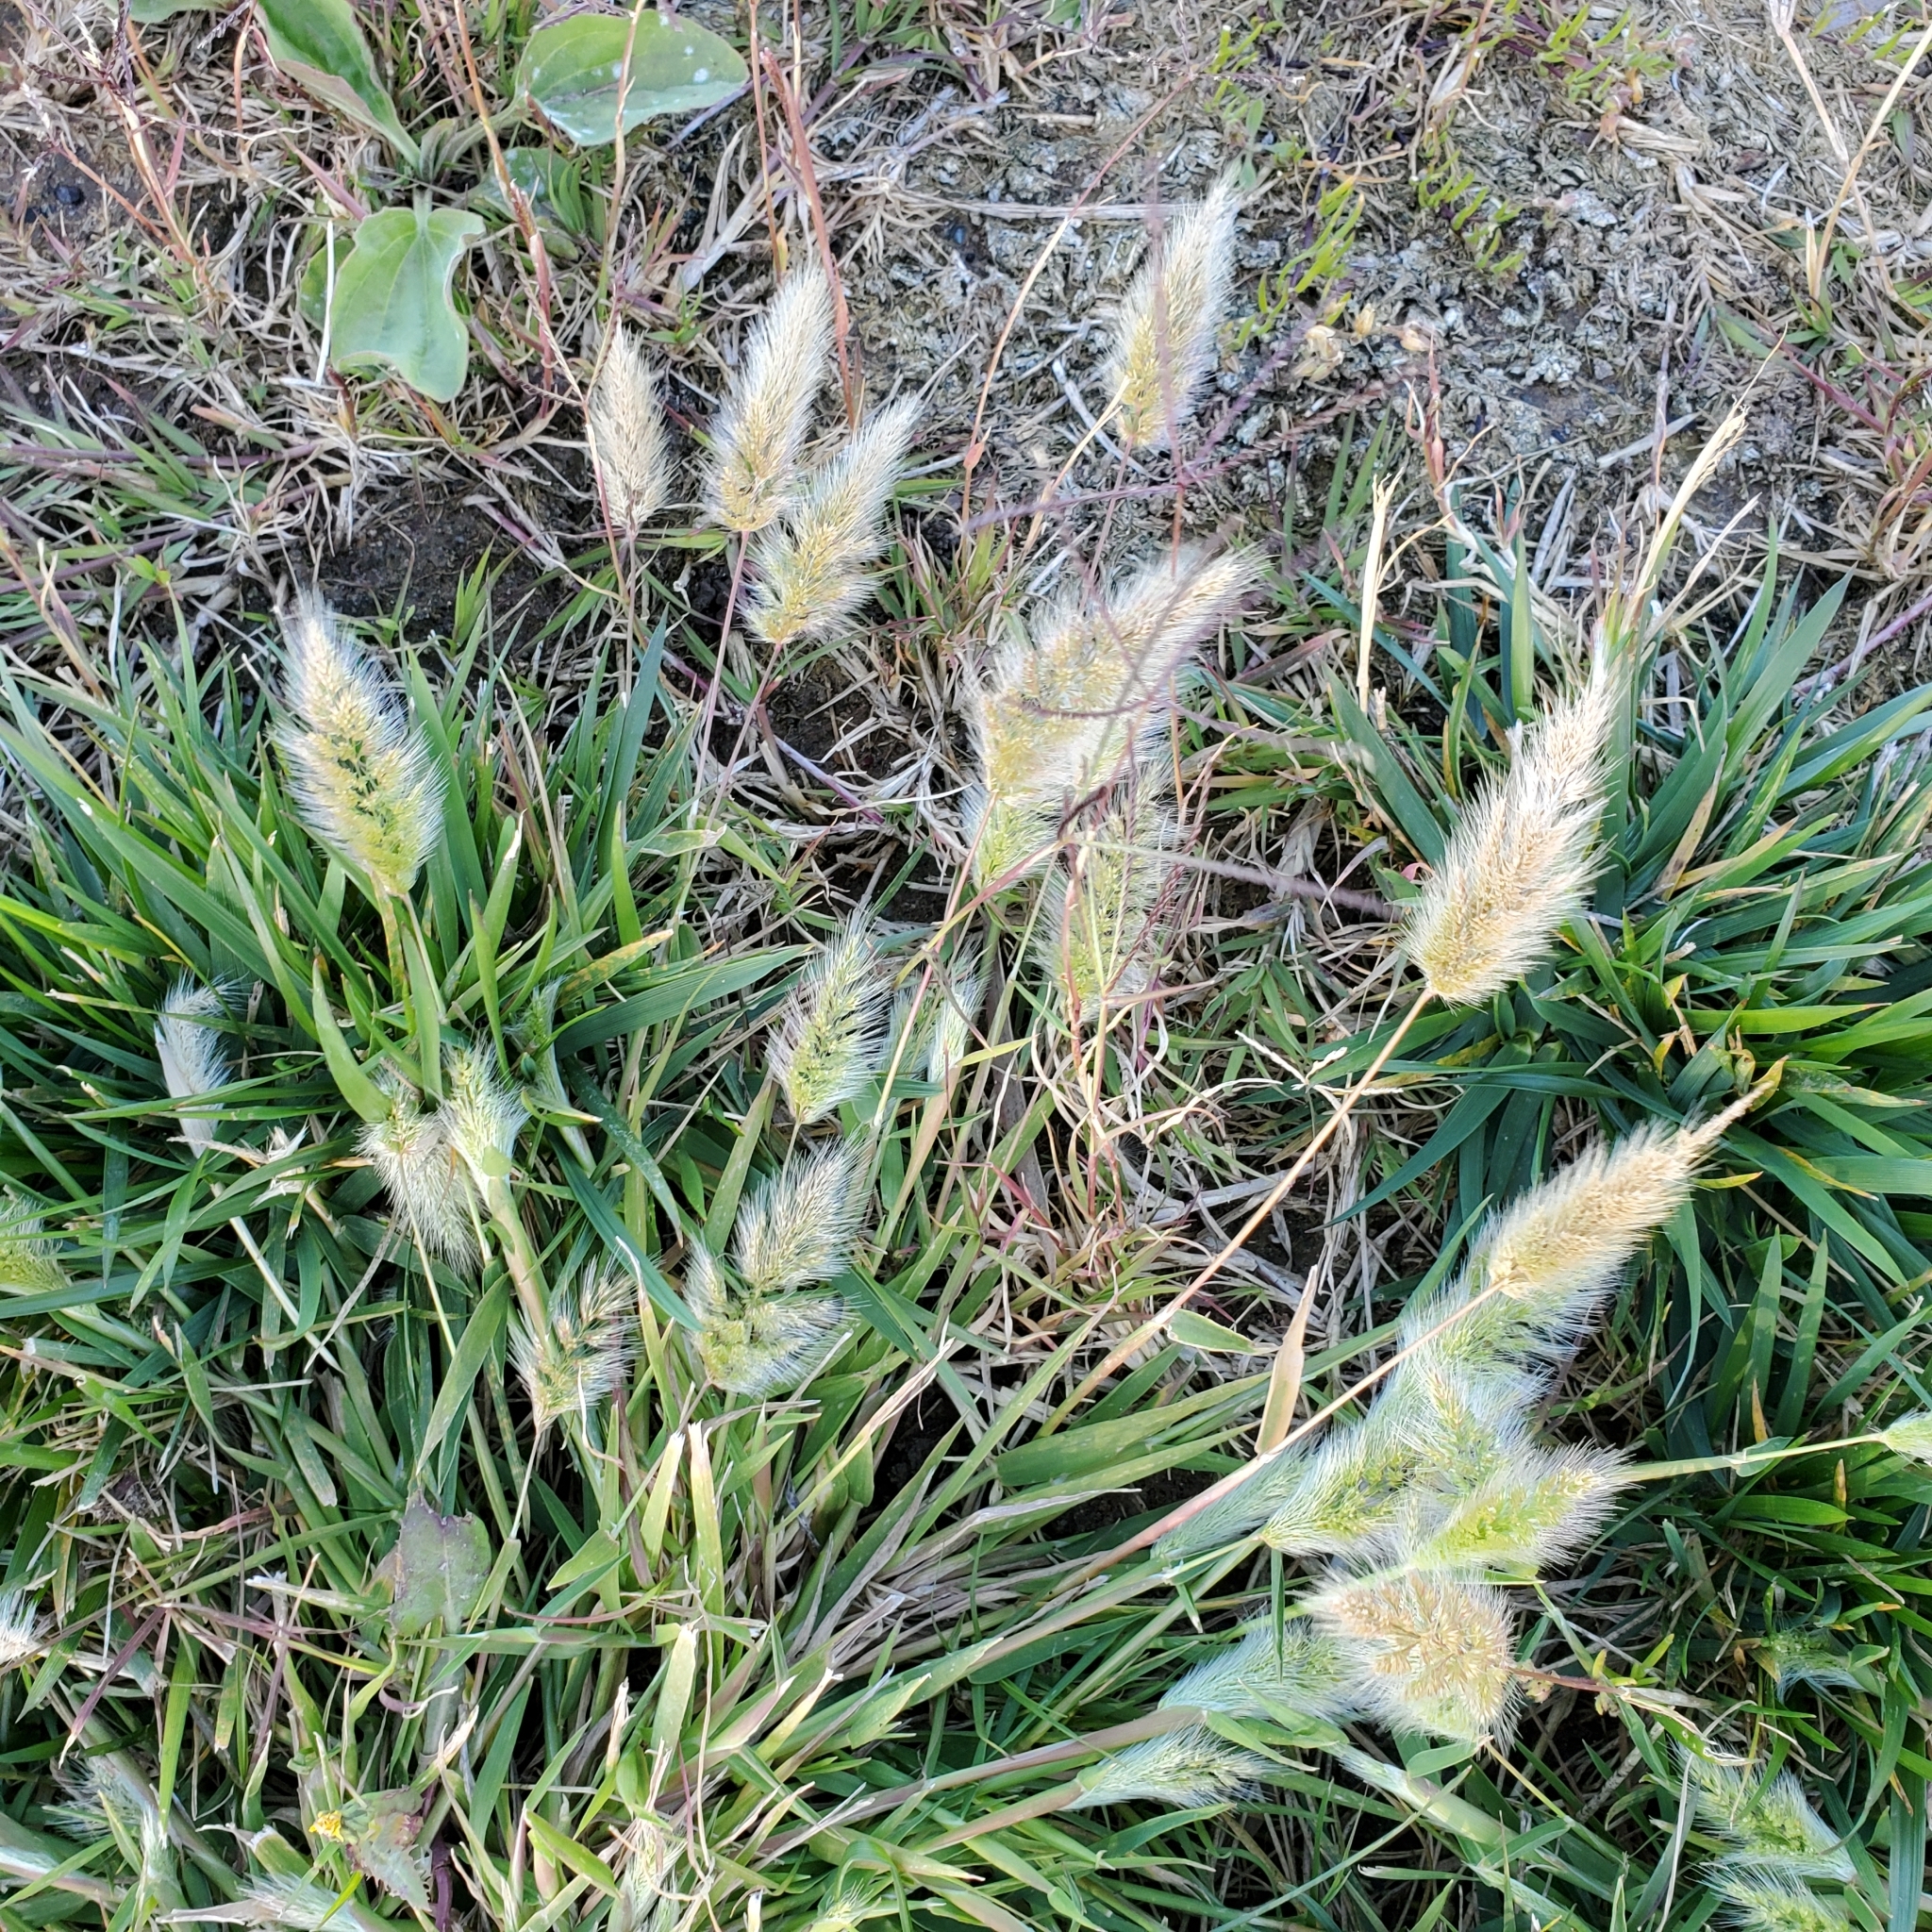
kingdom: Plantae
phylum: Tracheophyta
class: Liliopsida
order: Poales
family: Poaceae
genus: Polypogon
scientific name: Polypogon monspeliensis
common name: Annual rabbitsfoot grass
